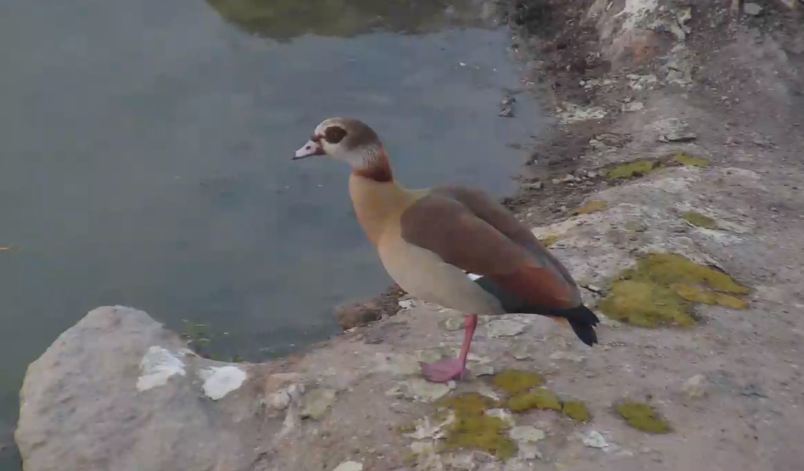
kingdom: Animalia
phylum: Chordata
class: Aves
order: Anseriformes
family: Anatidae
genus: Alopochen
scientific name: Alopochen aegyptiaca
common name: Egyptian goose
